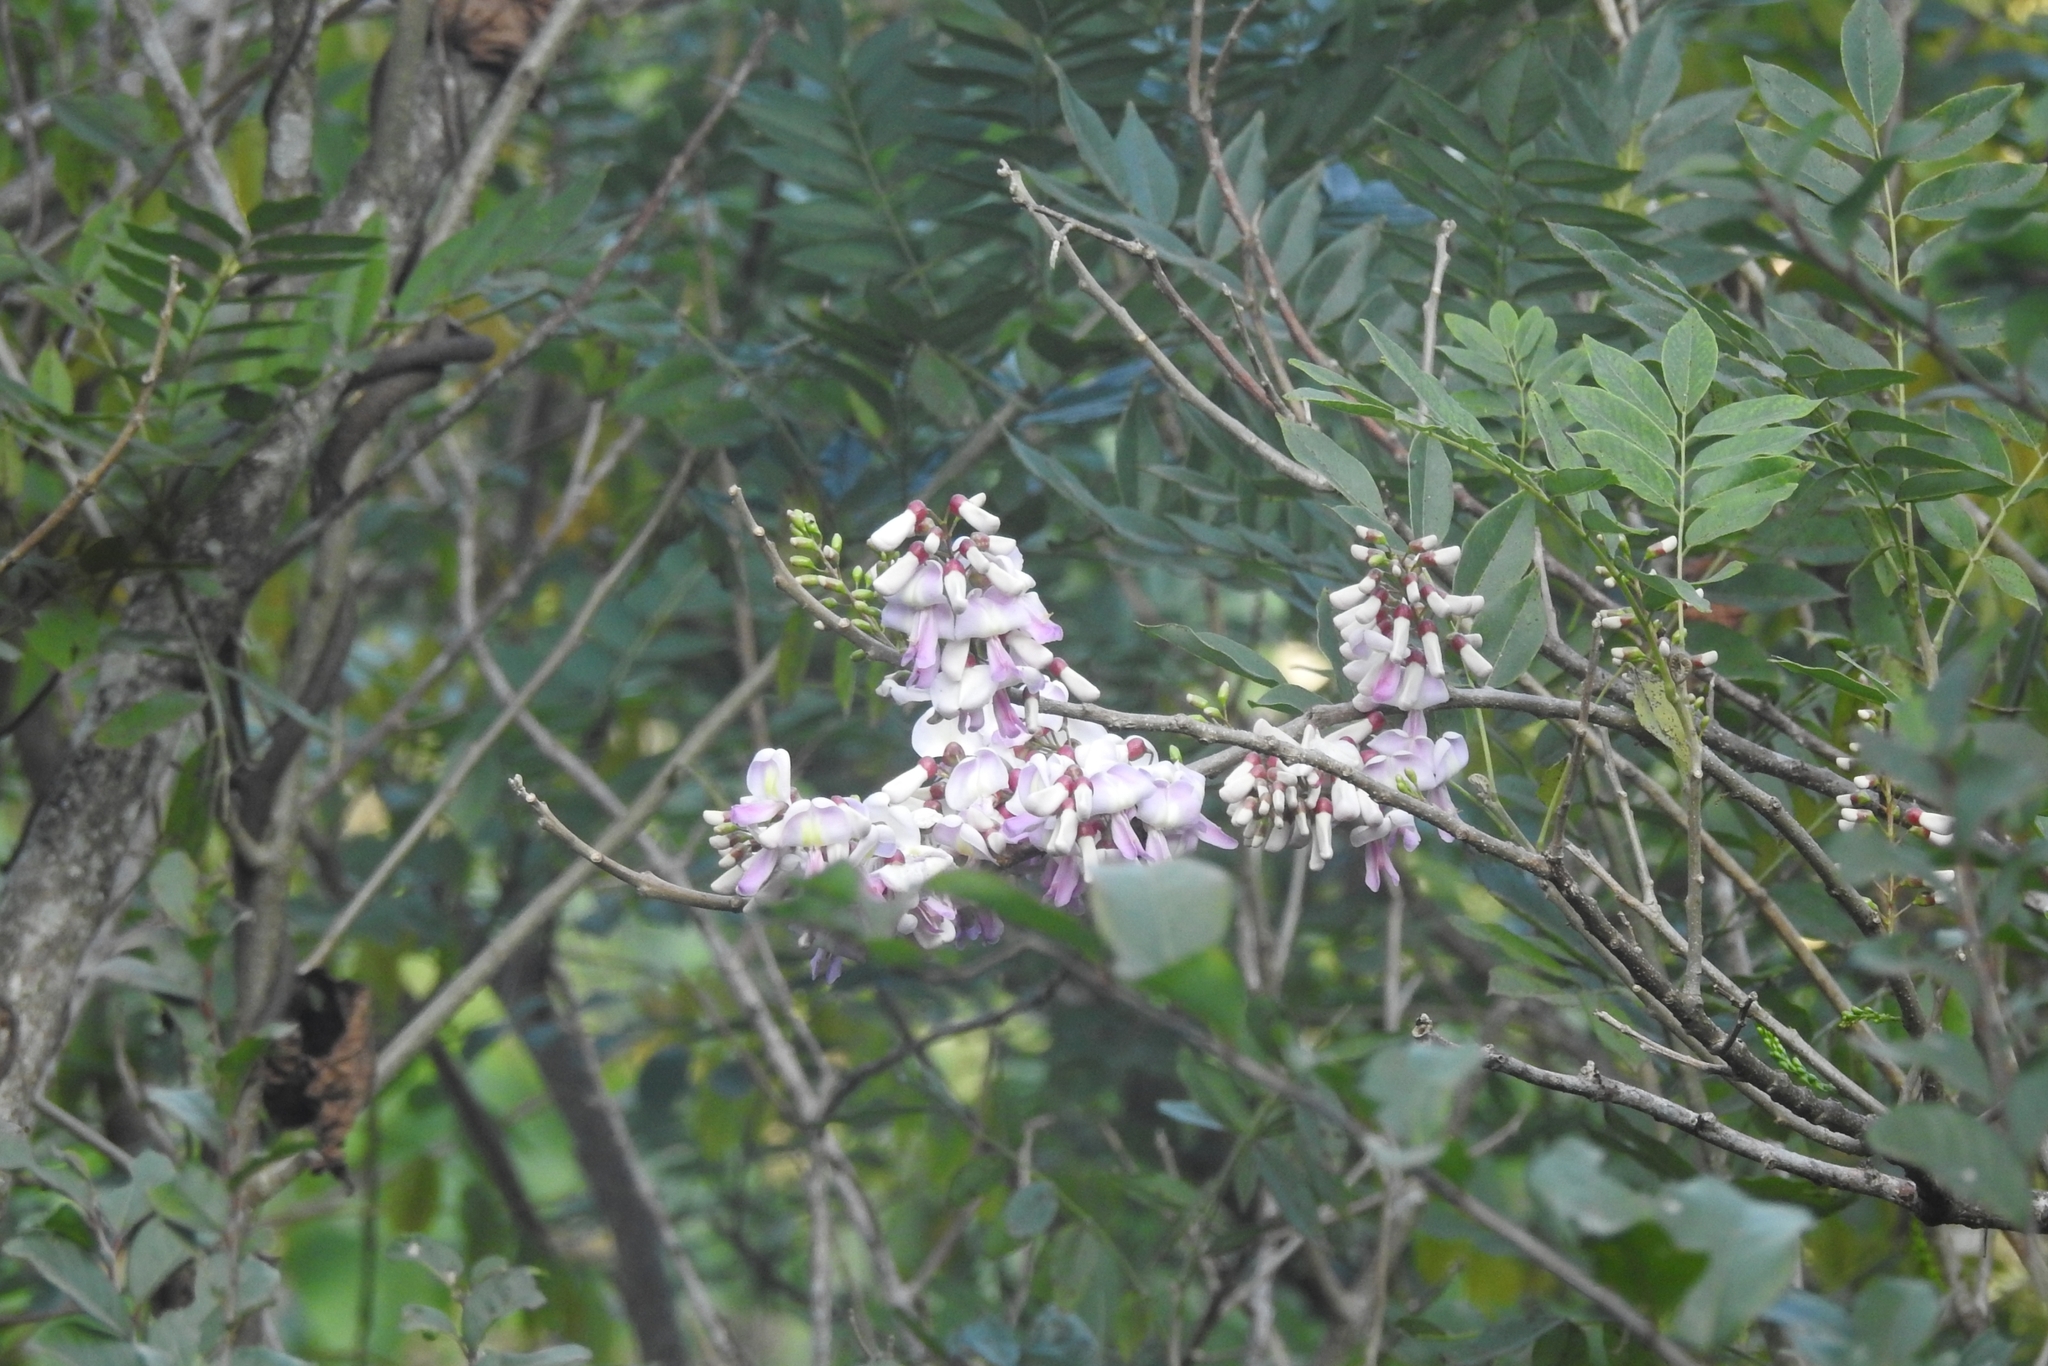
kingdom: Plantae
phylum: Tracheophyta
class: Magnoliopsida
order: Fabales
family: Fabaceae
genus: Gliricidia
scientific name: Gliricidia sepium
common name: Quickstick
